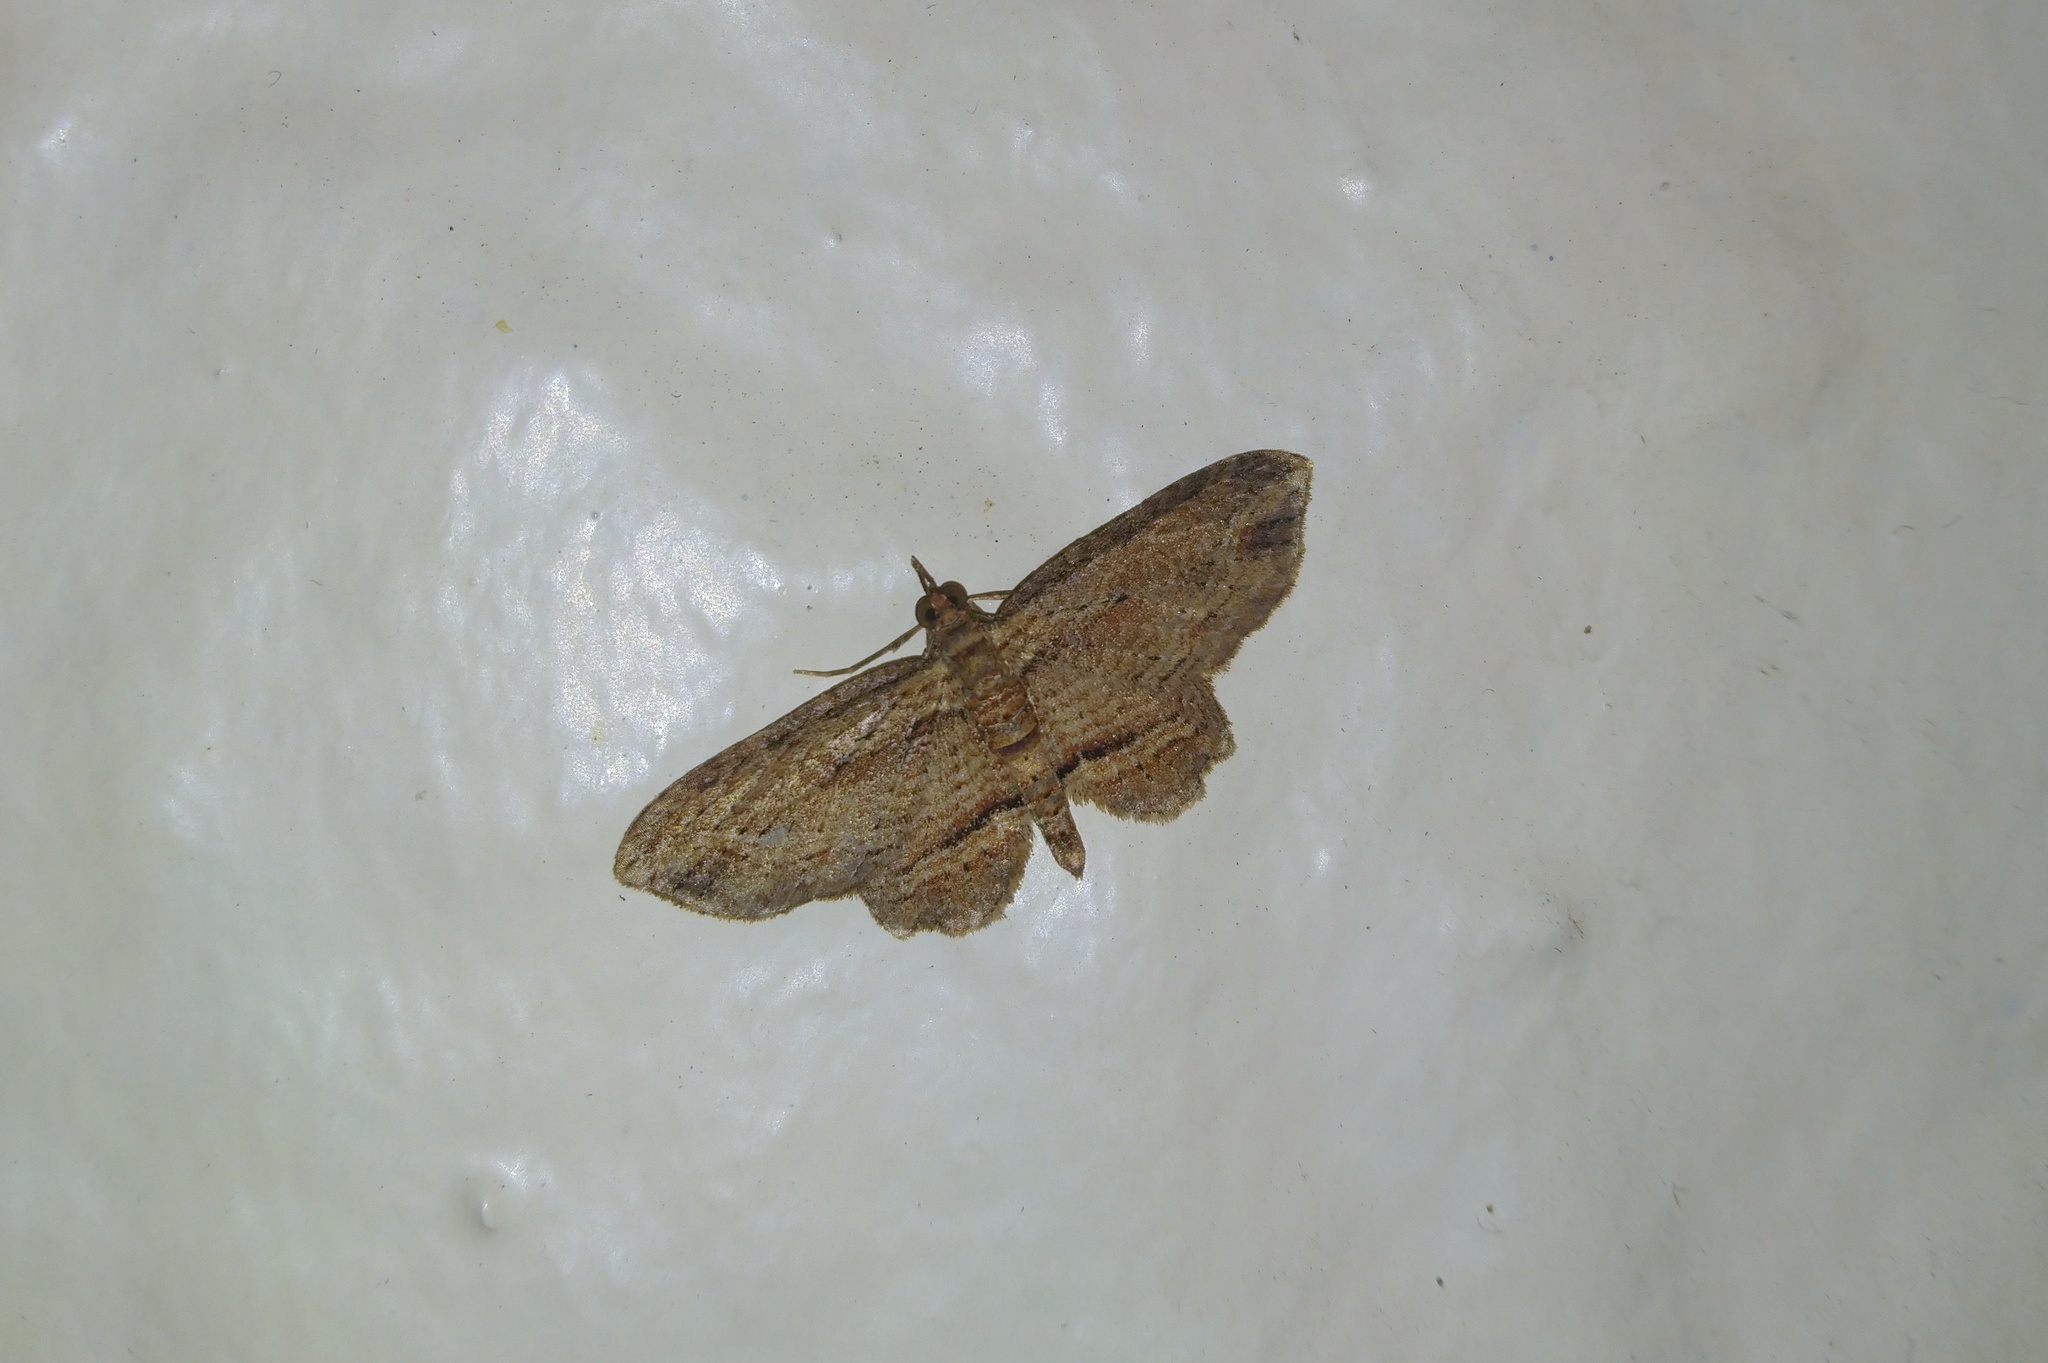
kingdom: Animalia
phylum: Arthropoda
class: Insecta
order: Lepidoptera
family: Geometridae
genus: Chloroclystis
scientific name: Chloroclystis filata
